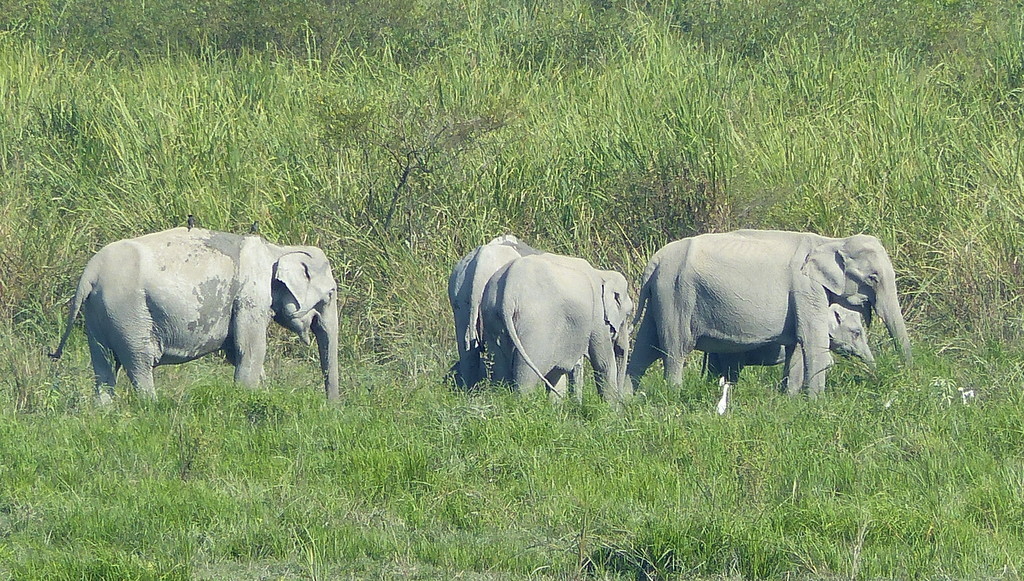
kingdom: Animalia
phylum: Chordata
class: Mammalia
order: Proboscidea
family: Elephantidae
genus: Elephas
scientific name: Elephas maximus
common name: Asian elephant
